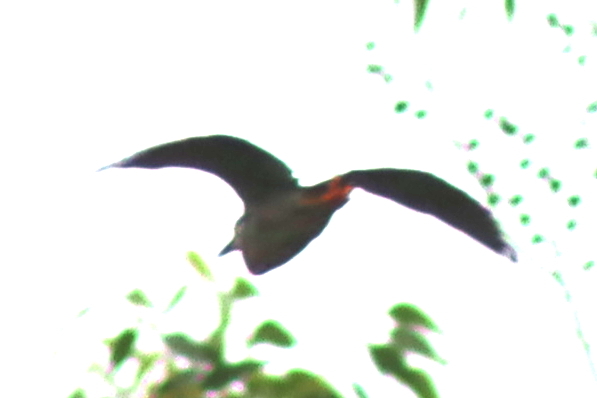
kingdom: Animalia
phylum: Chordata
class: Aves
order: Pelecaniformes
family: Ardeidae
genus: Butorides
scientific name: Butorides striata
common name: Striated heron
